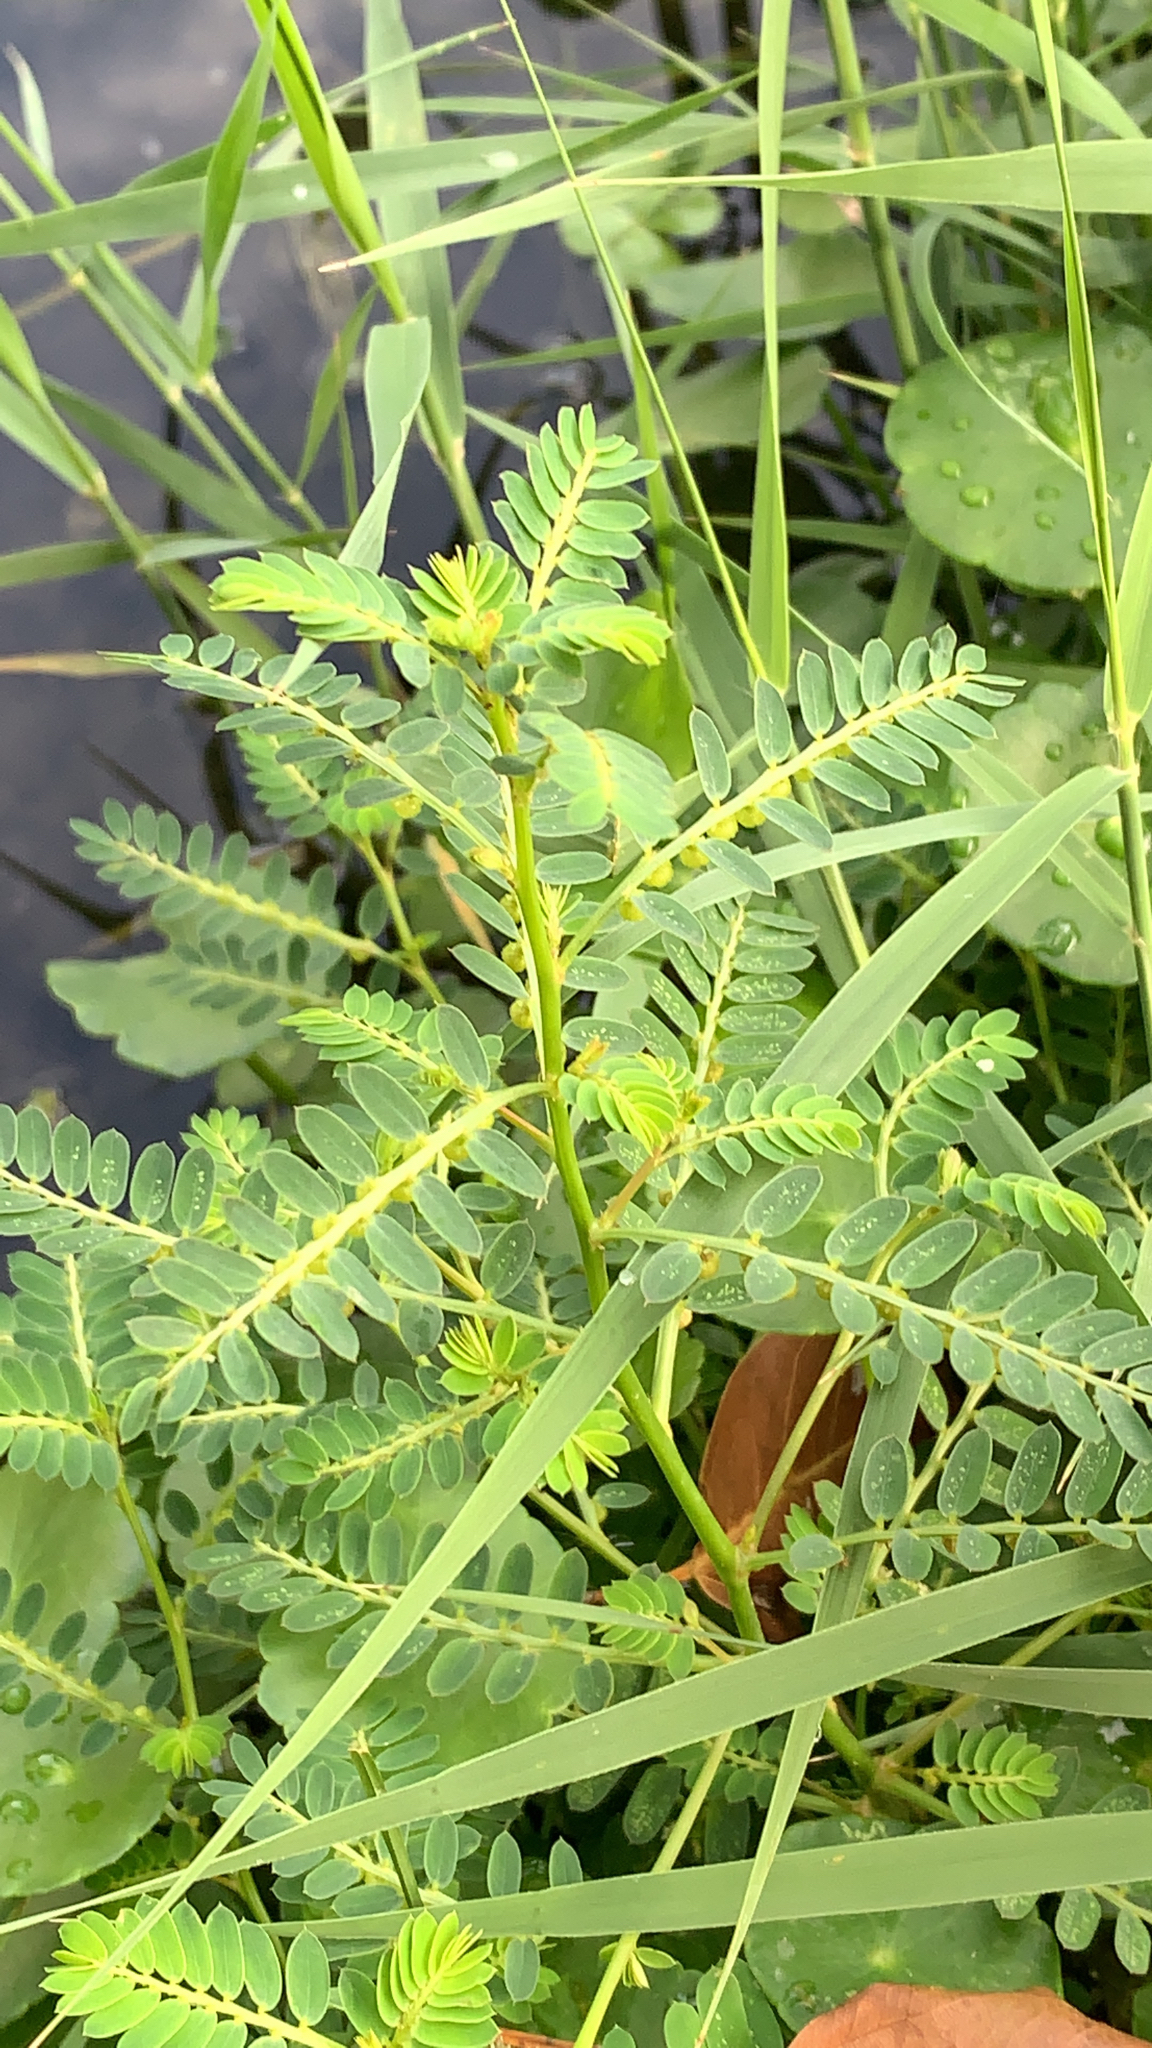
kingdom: Plantae
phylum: Tracheophyta
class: Magnoliopsida
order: Malpighiales
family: Phyllanthaceae
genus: Phyllanthus
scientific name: Phyllanthus urinaria
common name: Chamber bitter
